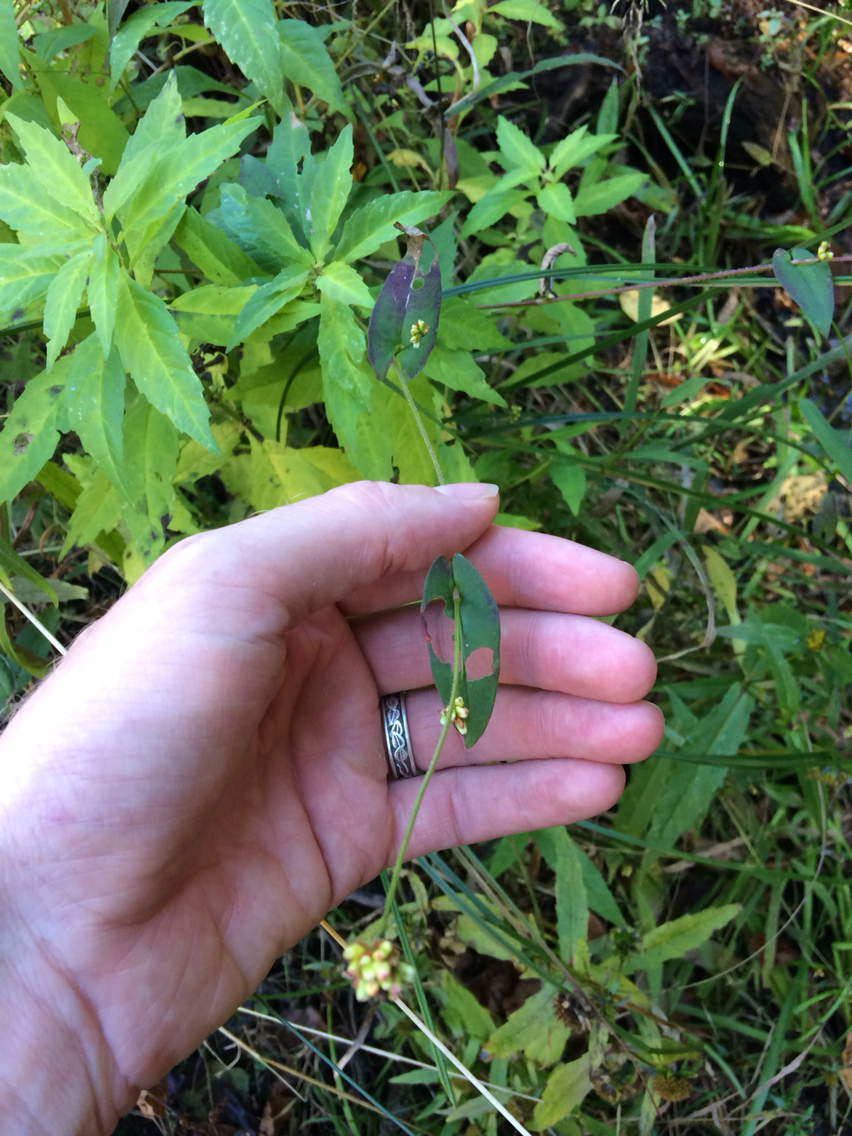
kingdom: Plantae
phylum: Tracheophyta
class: Magnoliopsida
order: Caryophyllales
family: Polygonaceae
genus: Persicaria
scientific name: Persicaria sagittata
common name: American tearthumb
